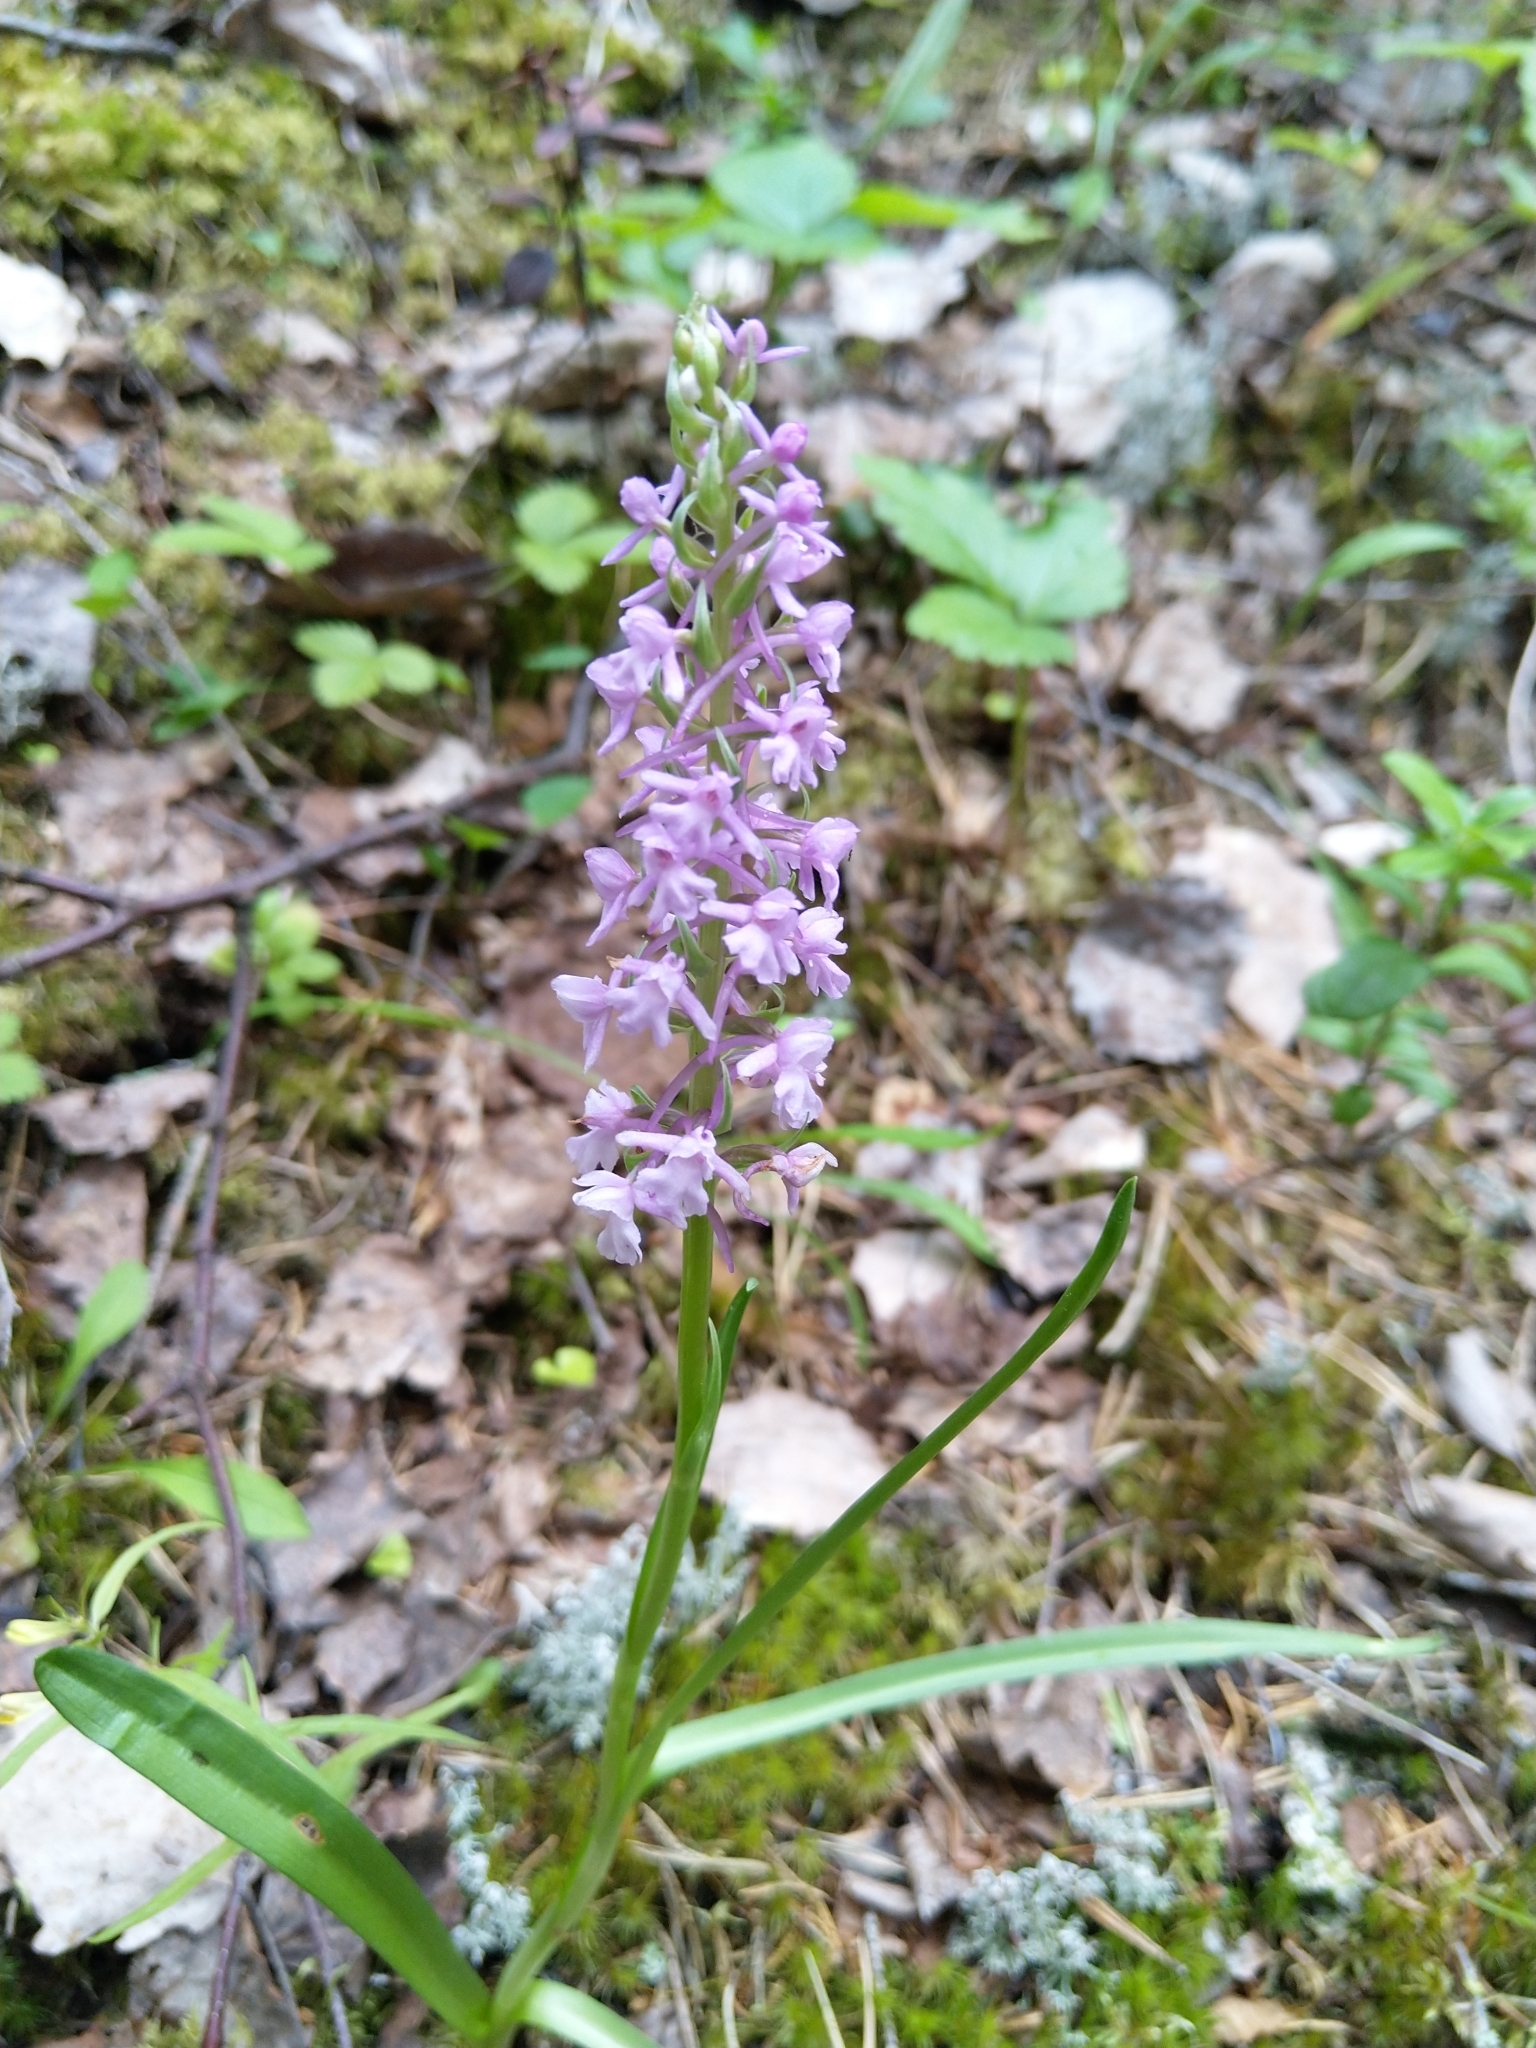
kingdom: Plantae
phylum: Tracheophyta
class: Liliopsida
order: Asparagales
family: Orchidaceae
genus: Gymnadenia
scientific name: Gymnadenia conopsea
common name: Fragrant orchid
